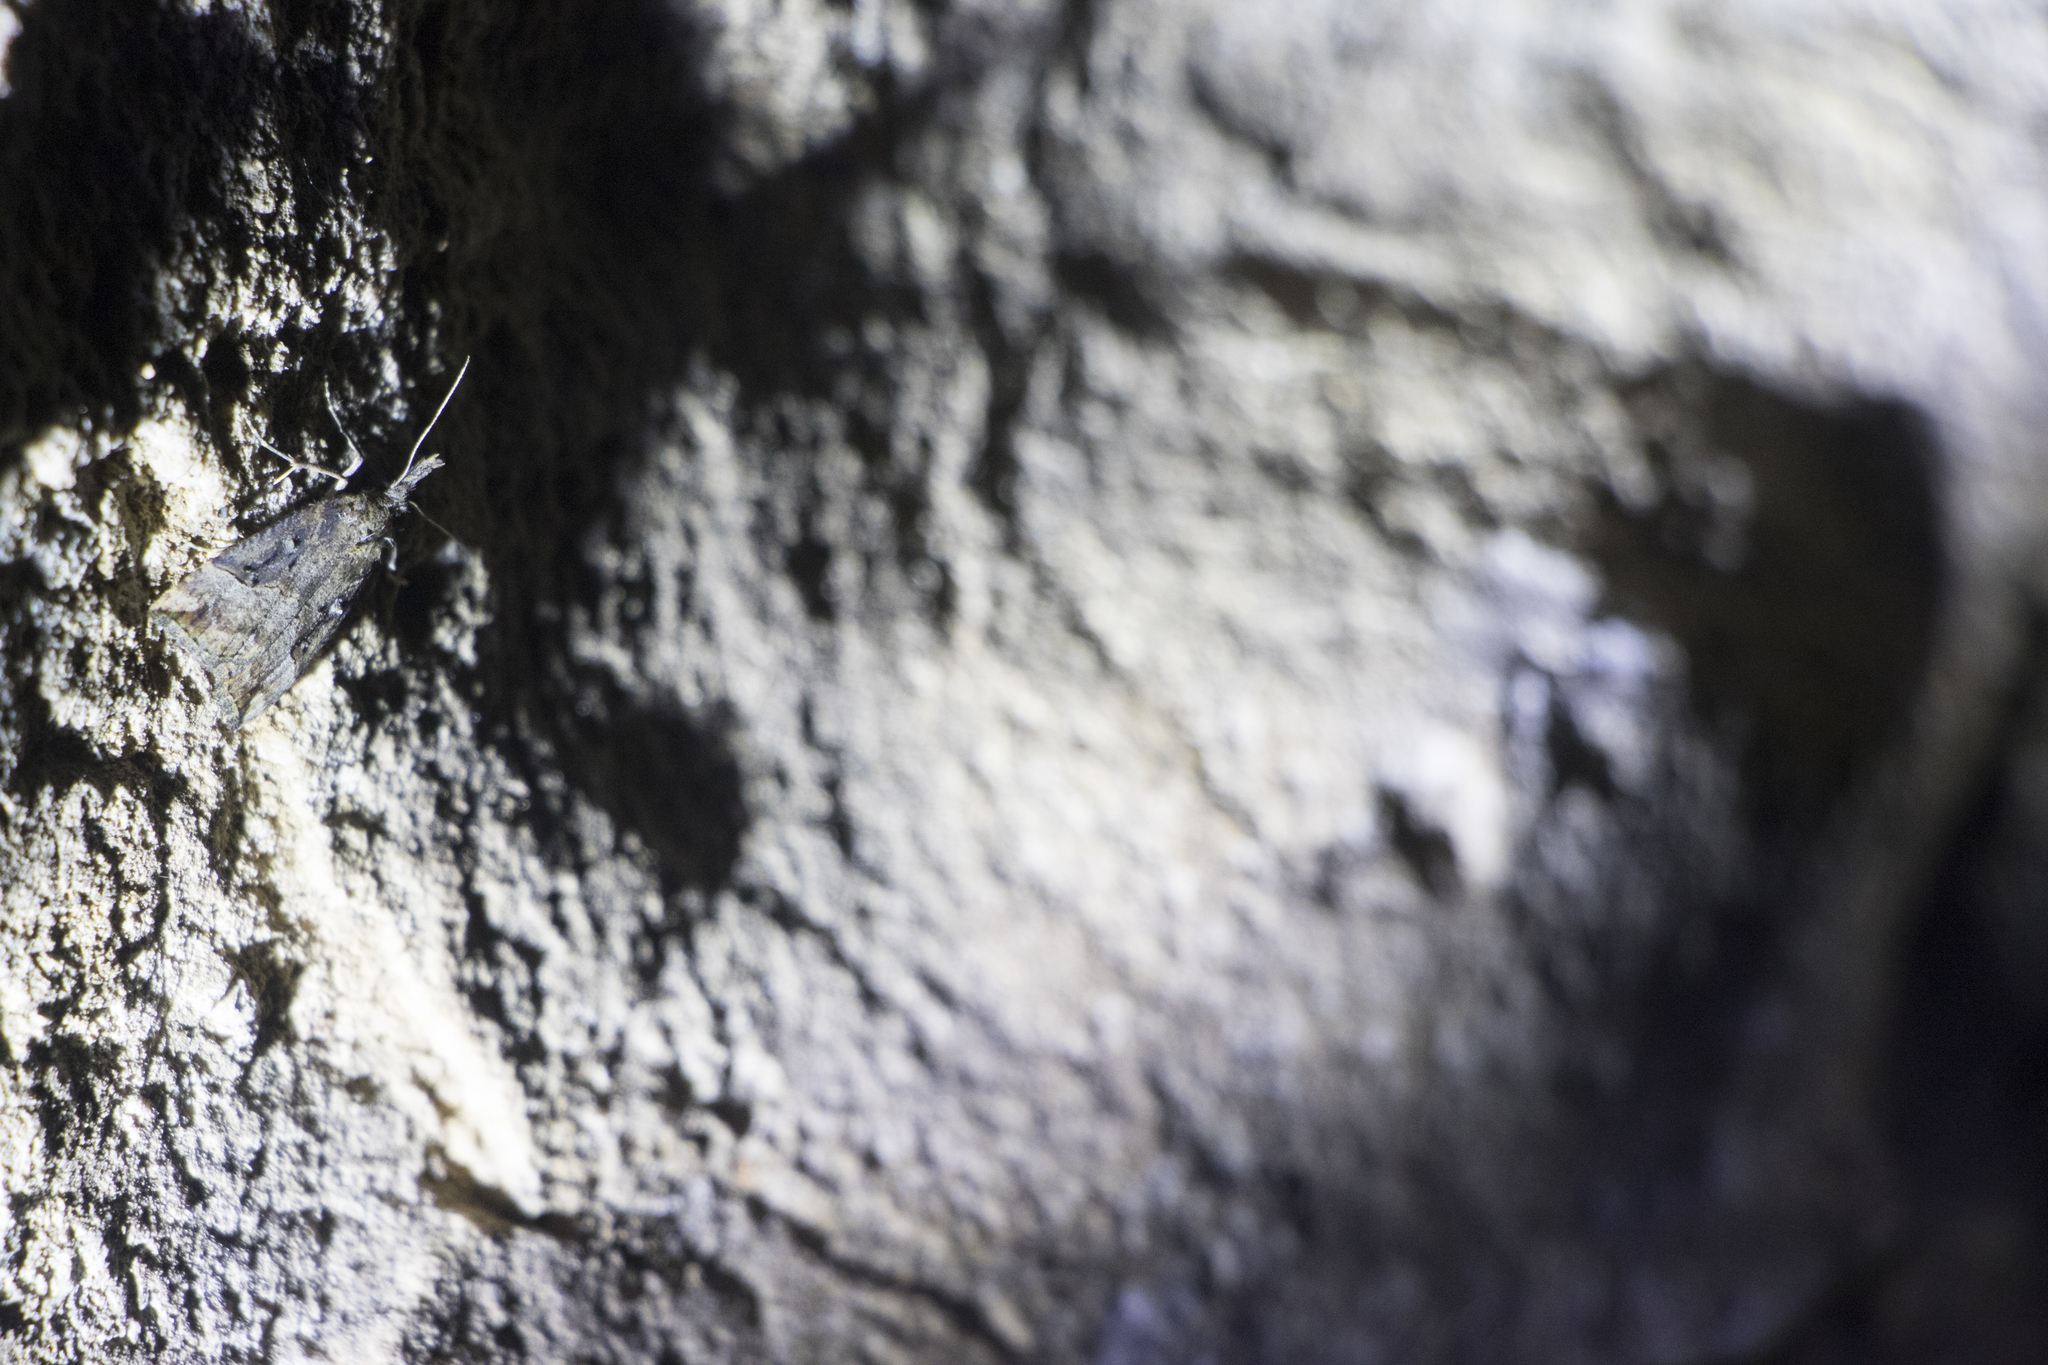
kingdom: Animalia
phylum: Arthropoda
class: Insecta
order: Lepidoptera
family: Erebidae
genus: Hypena
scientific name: Hypena rostralis
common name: Buttoned snout
